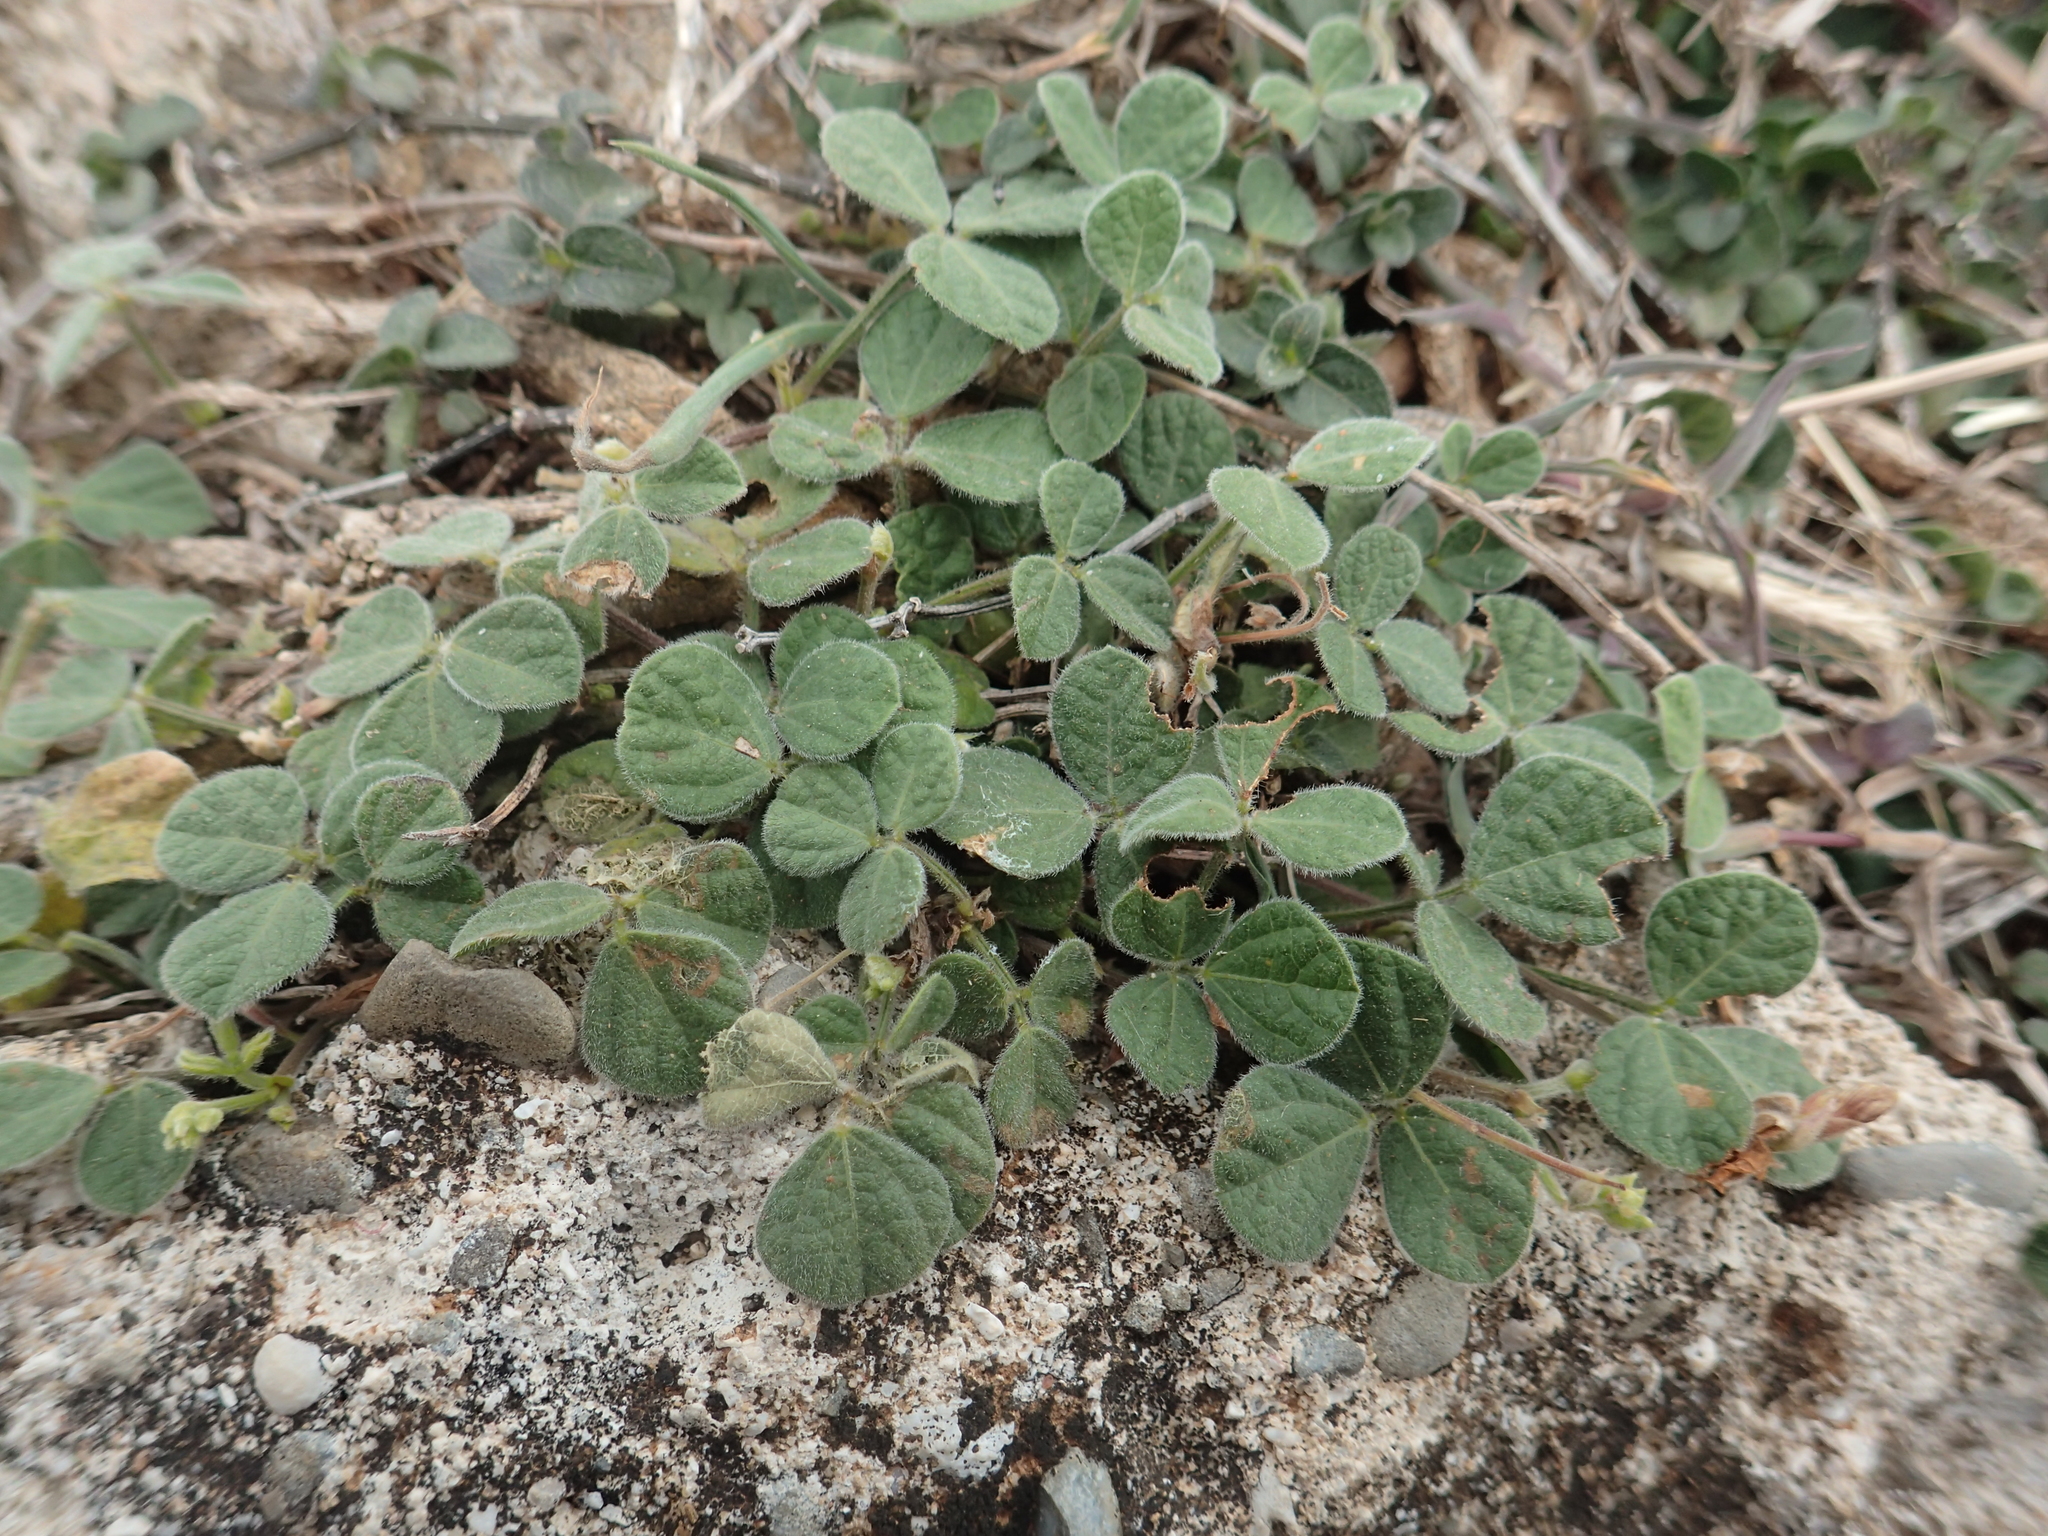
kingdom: Plantae
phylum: Tracheophyta
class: Magnoliopsida
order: Fabales
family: Fabaceae
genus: Rhynchosia
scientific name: Rhynchosia minima
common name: Least snoutbean
